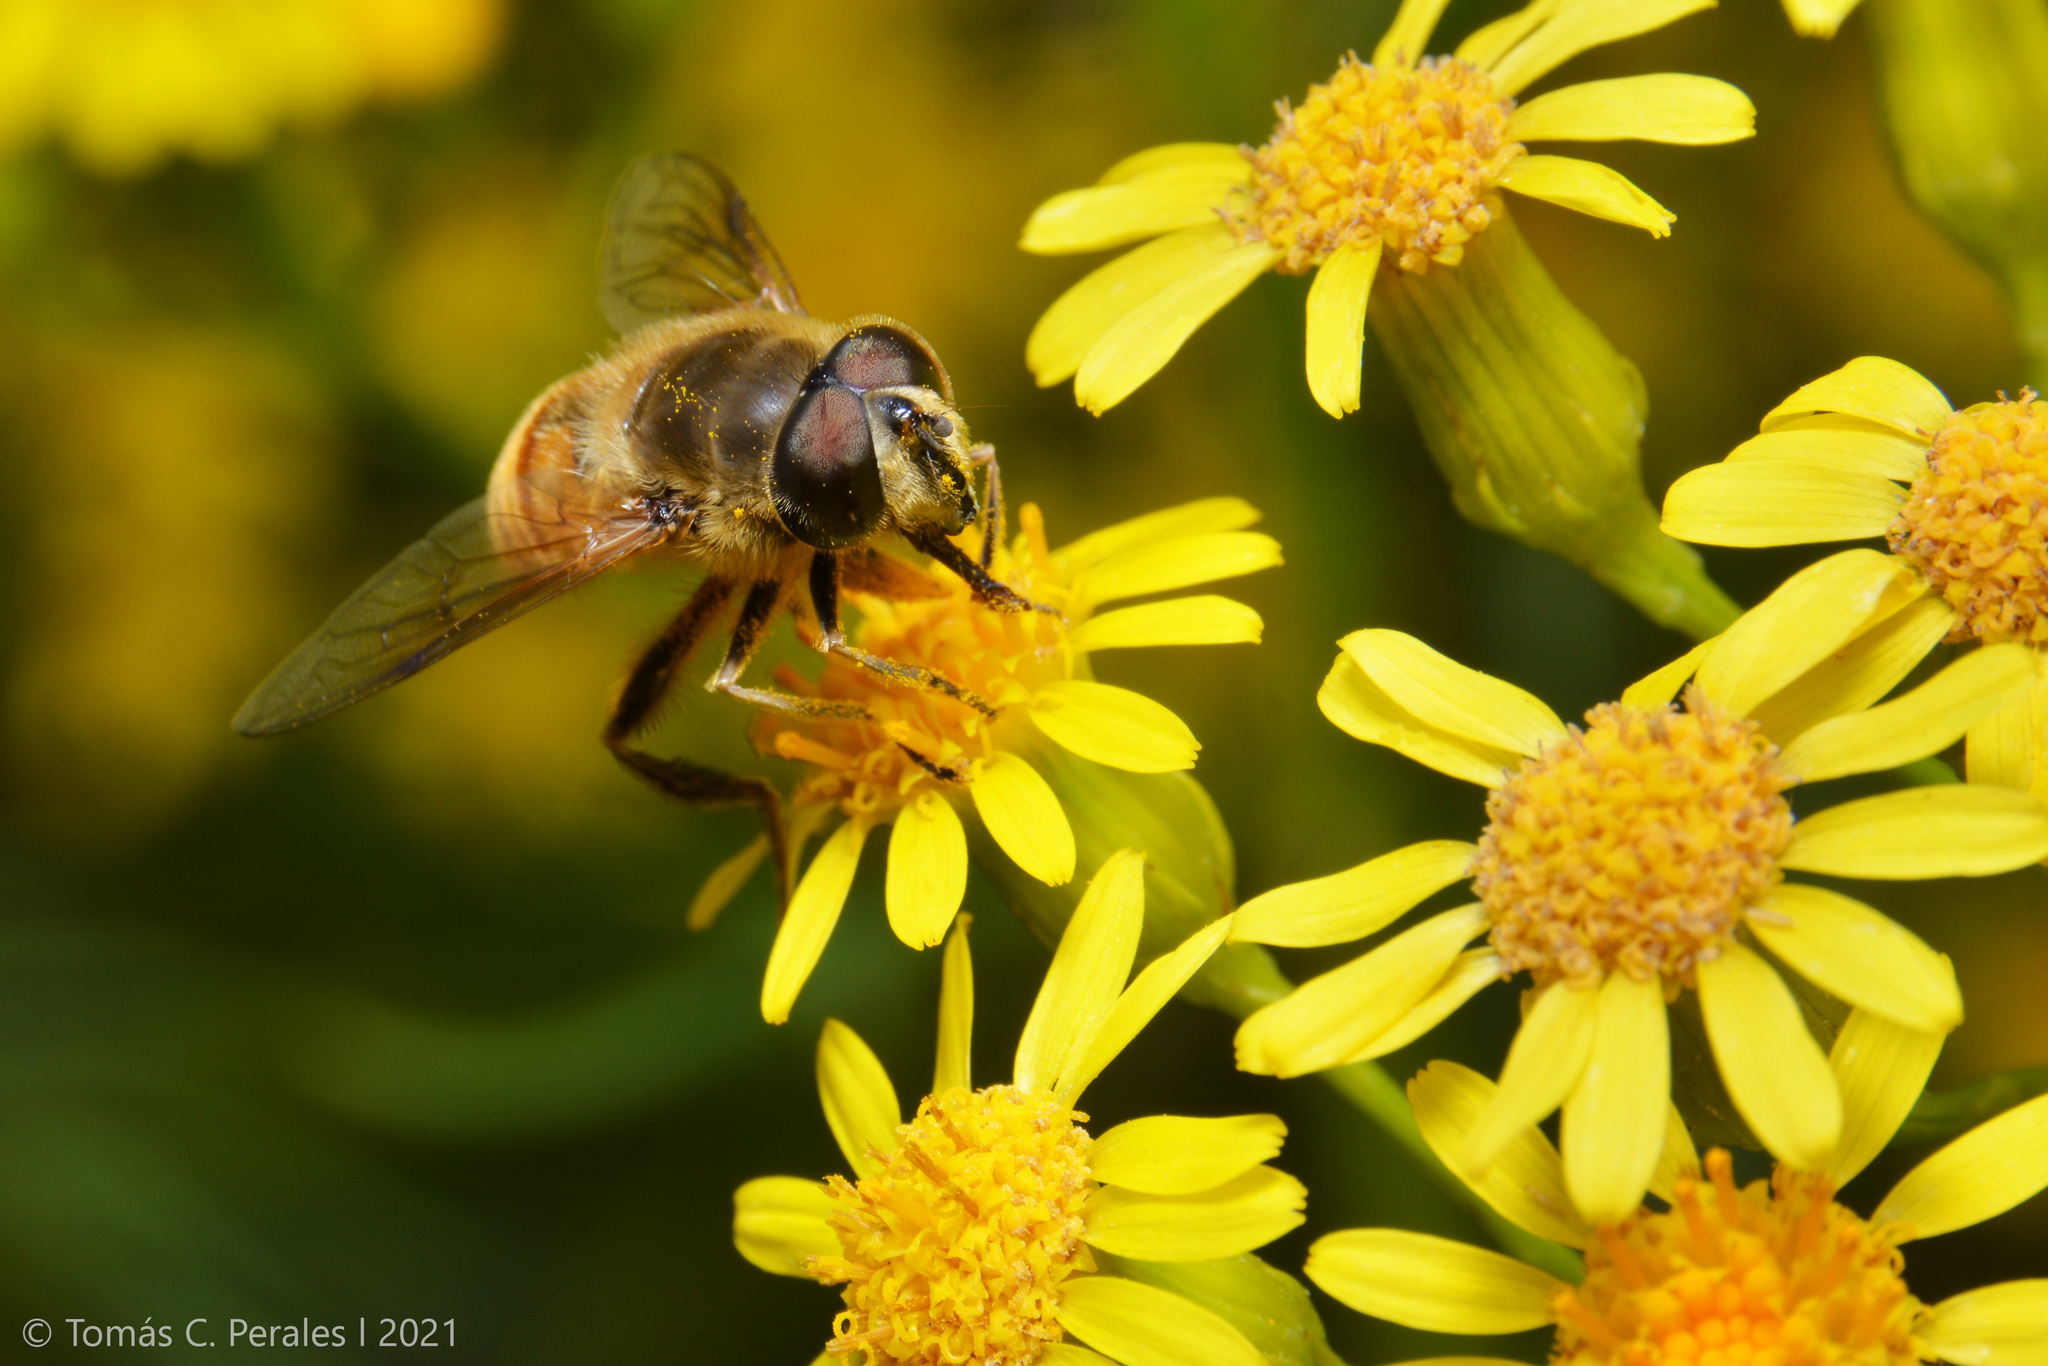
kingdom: Animalia
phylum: Arthropoda
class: Insecta
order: Diptera
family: Syrphidae
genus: Eristalis
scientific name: Eristalis tenax
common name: Drone fly
